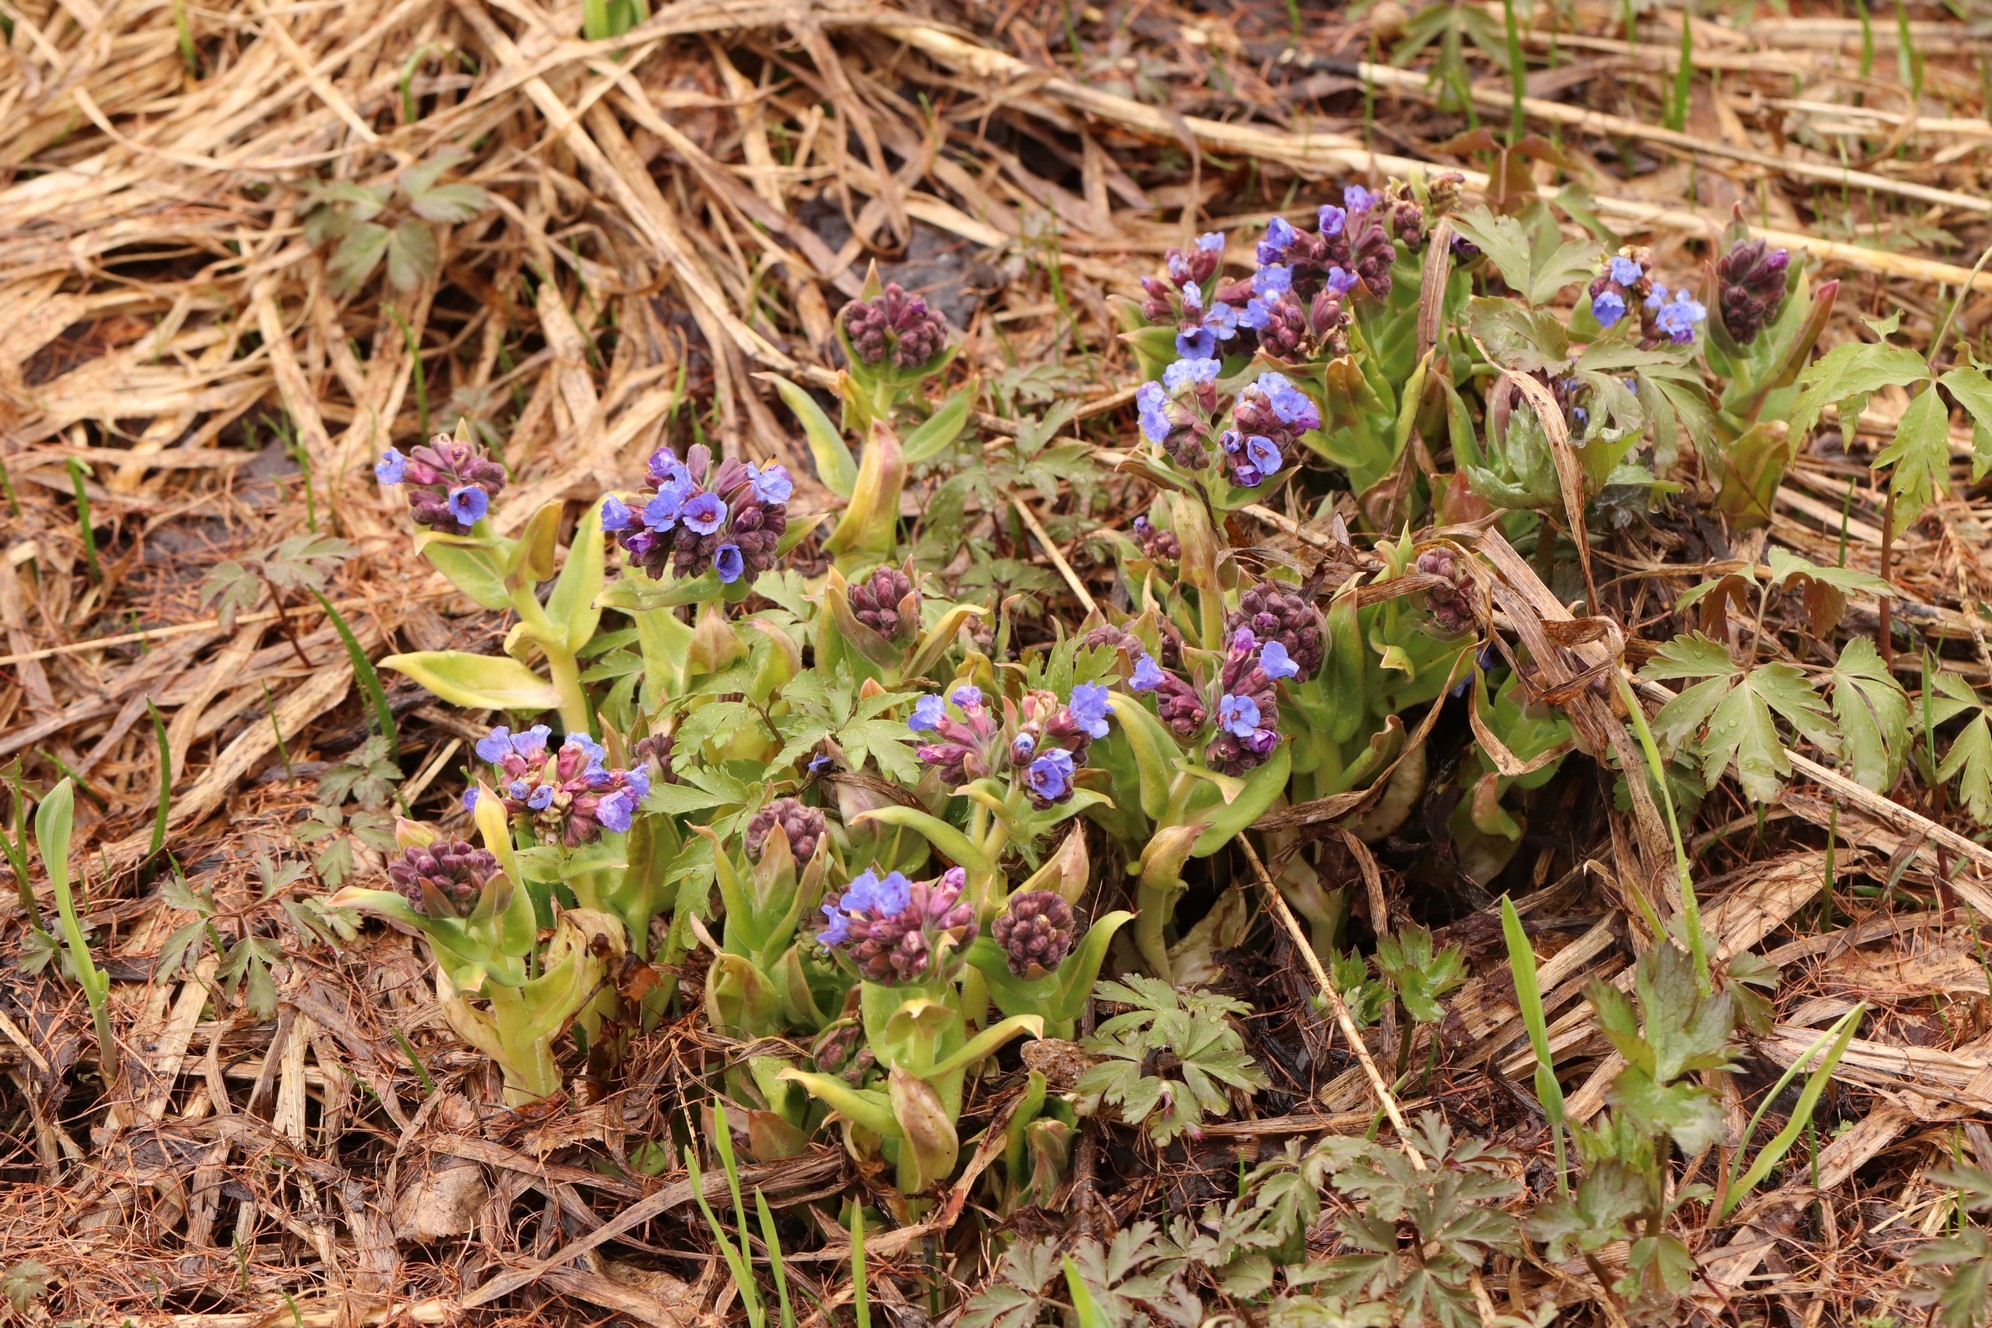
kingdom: Plantae
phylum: Tracheophyta
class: Magnoliopsida
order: Boraginales
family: Boraginaceae
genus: Pulmonaria
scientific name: Pulmonaria mollis
